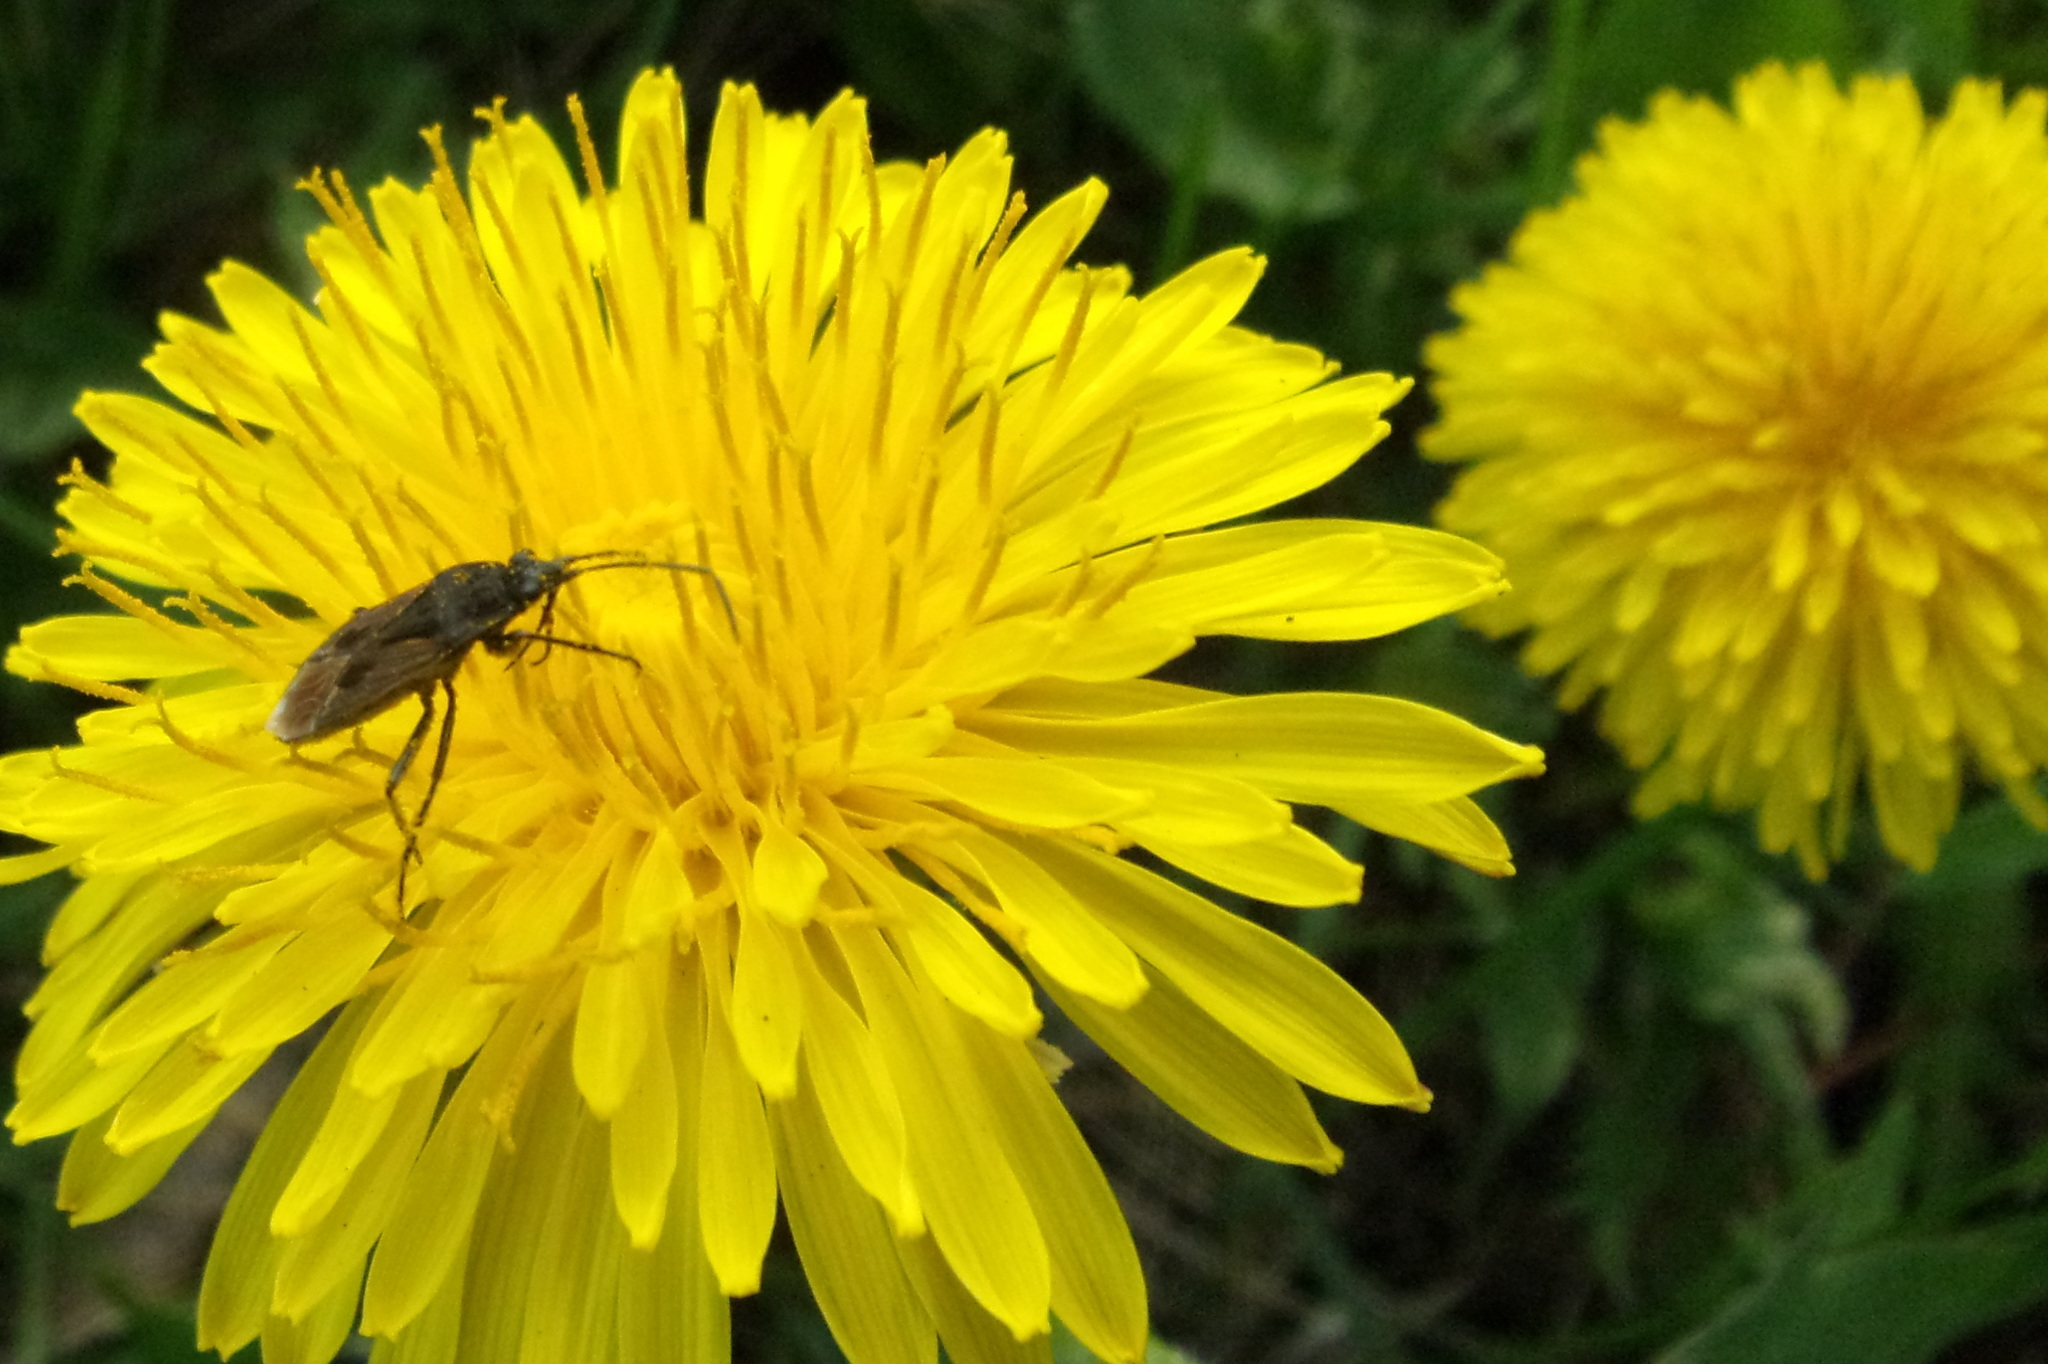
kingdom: Animalia
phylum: Arthropoda
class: Insecta
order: Hemiptera
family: Rhyparochromidae
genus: Rhyparochromus
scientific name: Rhyparochromus pini
